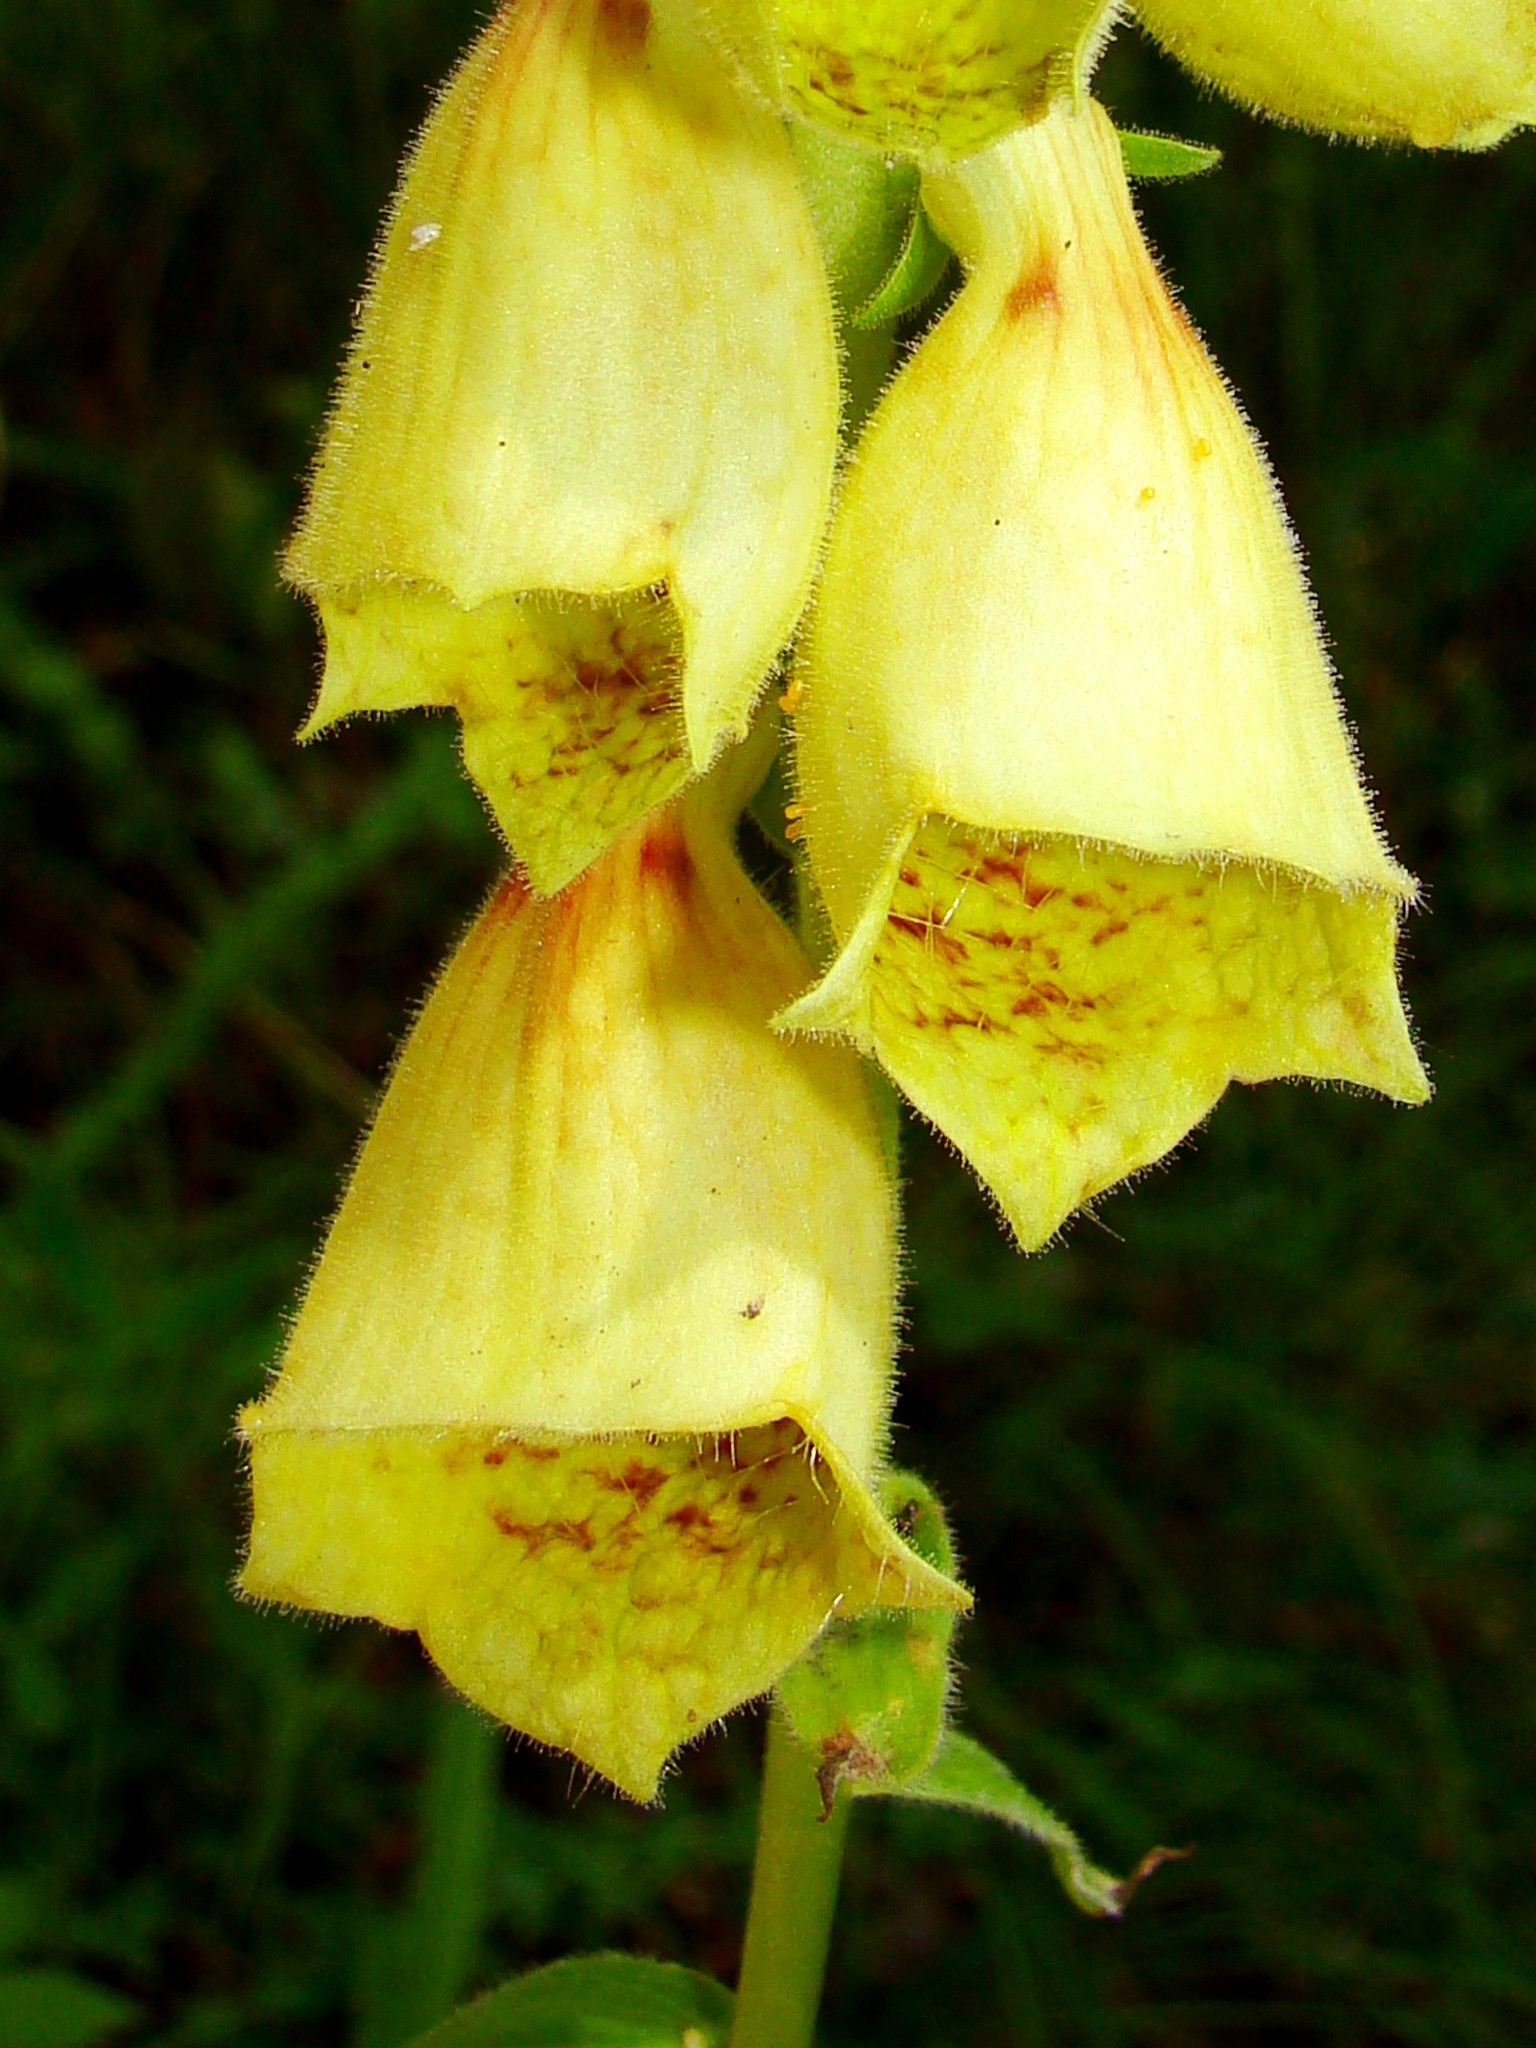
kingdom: Plantae
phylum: Tracheophyta
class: Magnoliopsida
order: Lamiales
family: Plantaginaceae
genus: Digitalis
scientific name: Digitalis grandiflora
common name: Yellow foxglove
